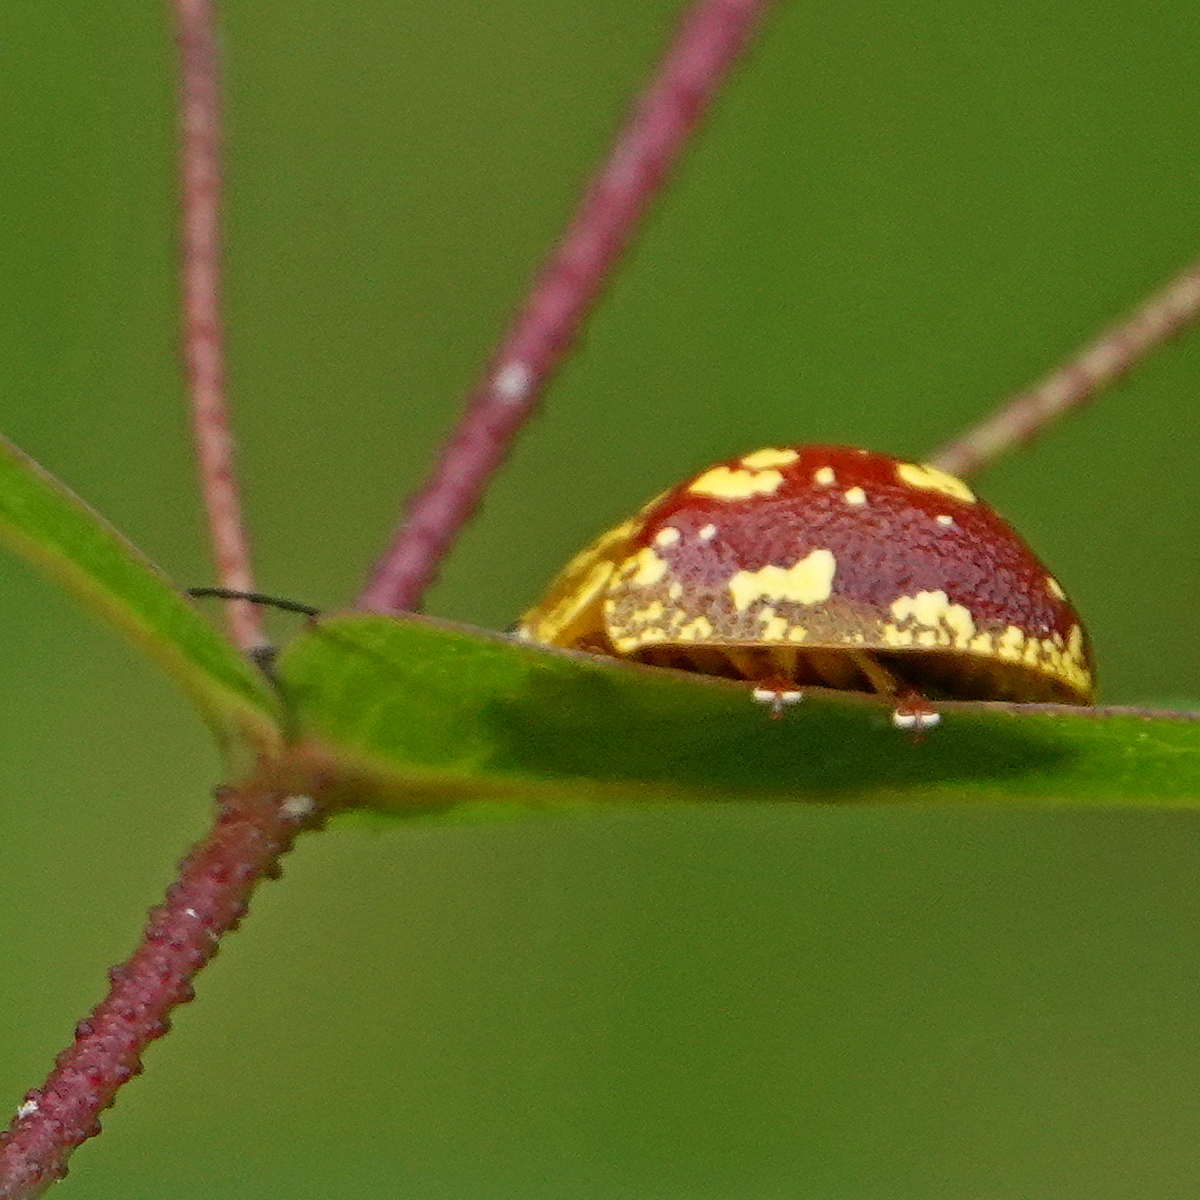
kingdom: Animalia
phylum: Arthropoda
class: Insecta
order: Coleoptera
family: Chrysomelidae
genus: Paropsis
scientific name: Paropsis maculata
